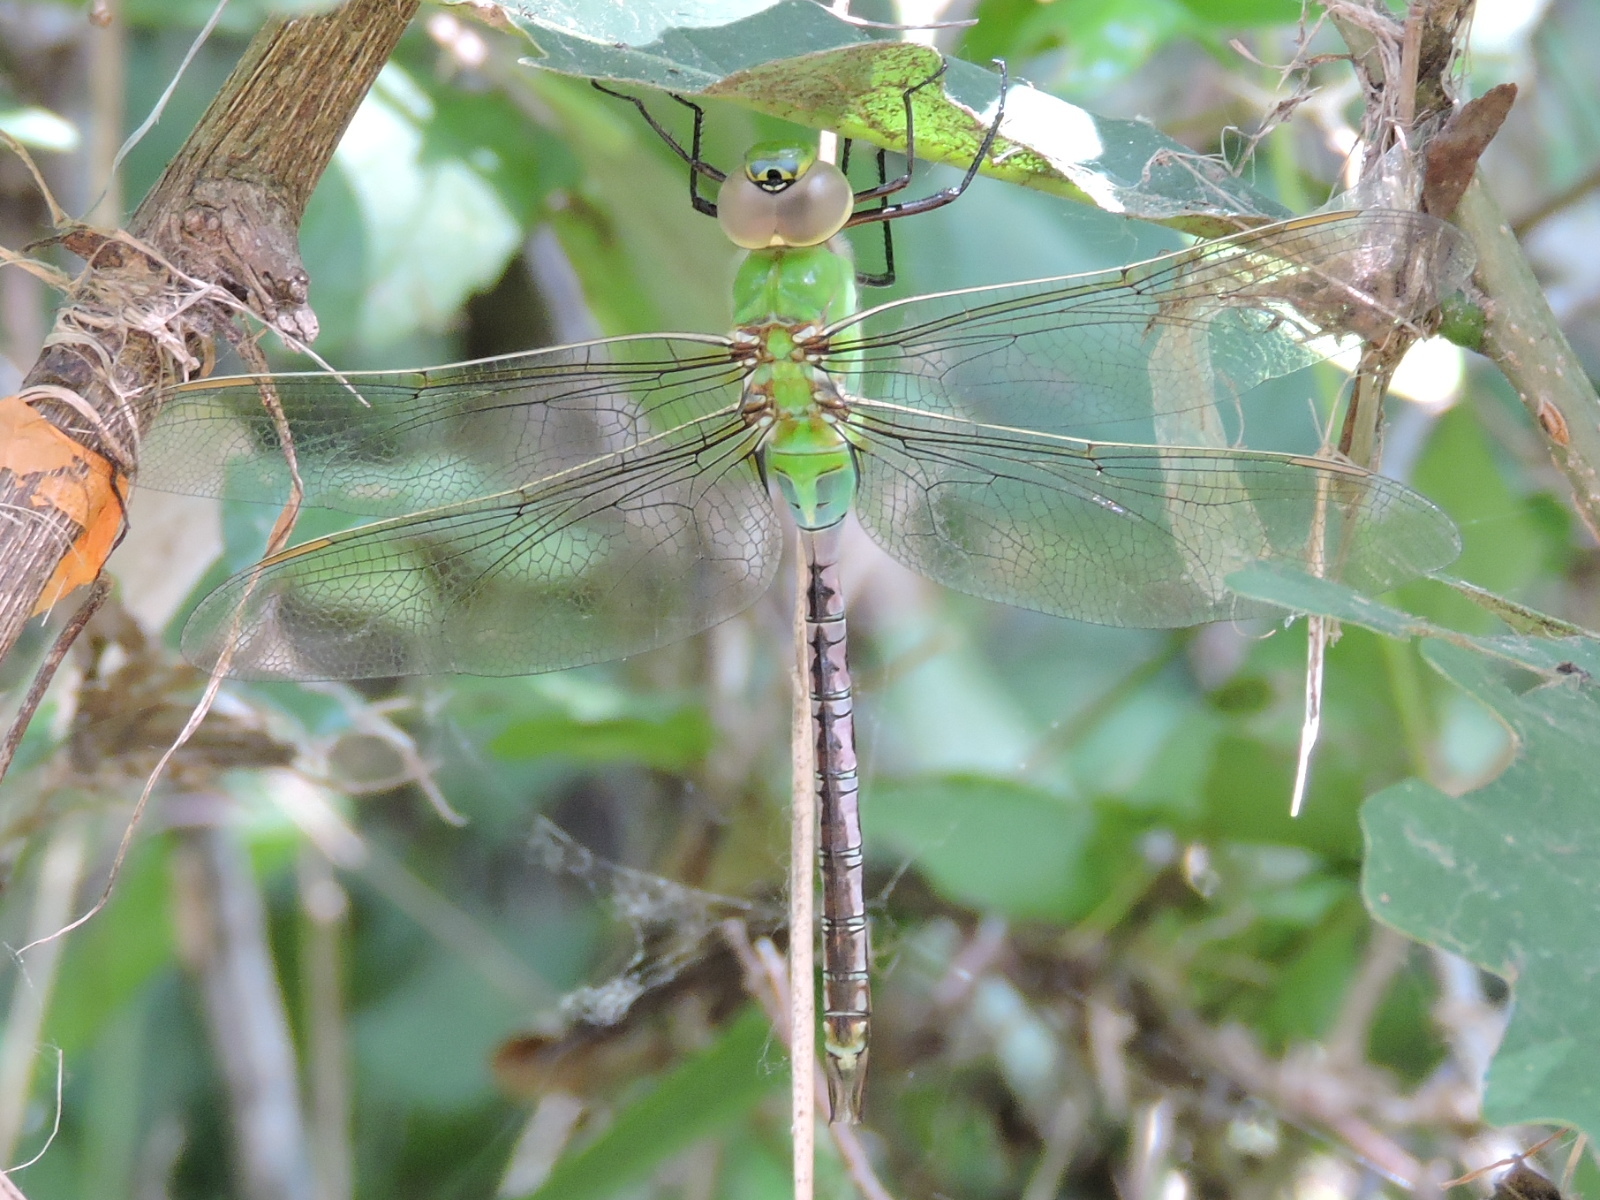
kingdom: Animalia
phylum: Arthropoda
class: Insecta
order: Odonata
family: Aeshnidae
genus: Anax
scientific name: Anax junius
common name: Common green darner
